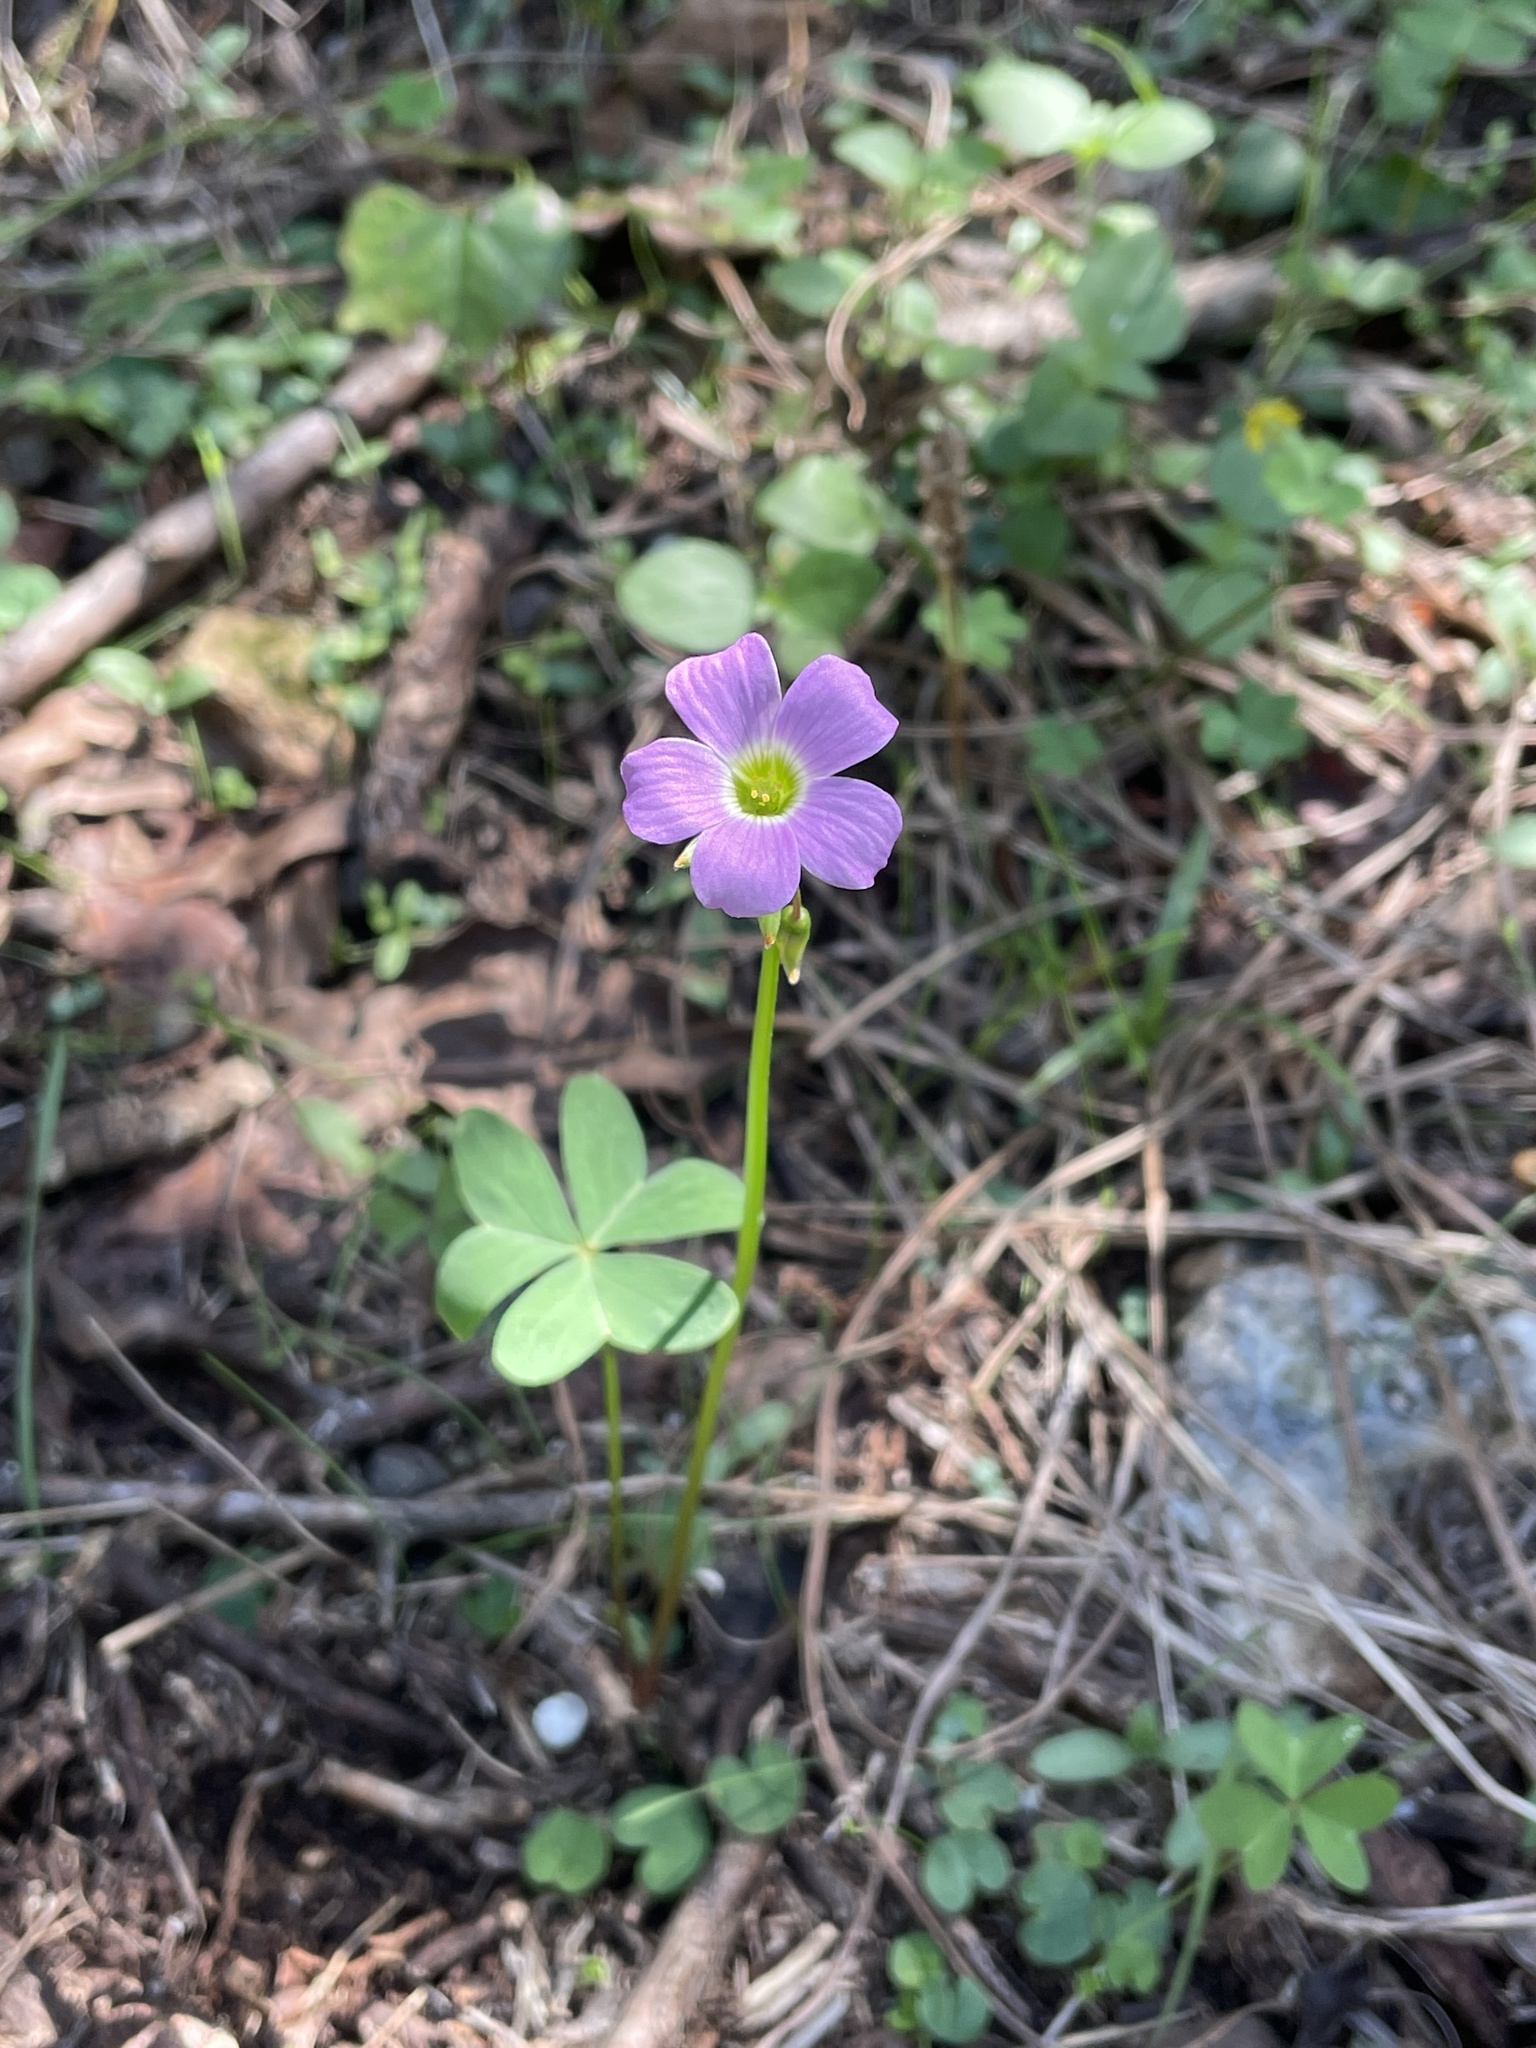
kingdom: Plantae
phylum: Tracheophyta
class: Magnoliopsida
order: Oxalidales
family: Oxalidaceae
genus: Oxalis
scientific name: Oxalis drummondii
